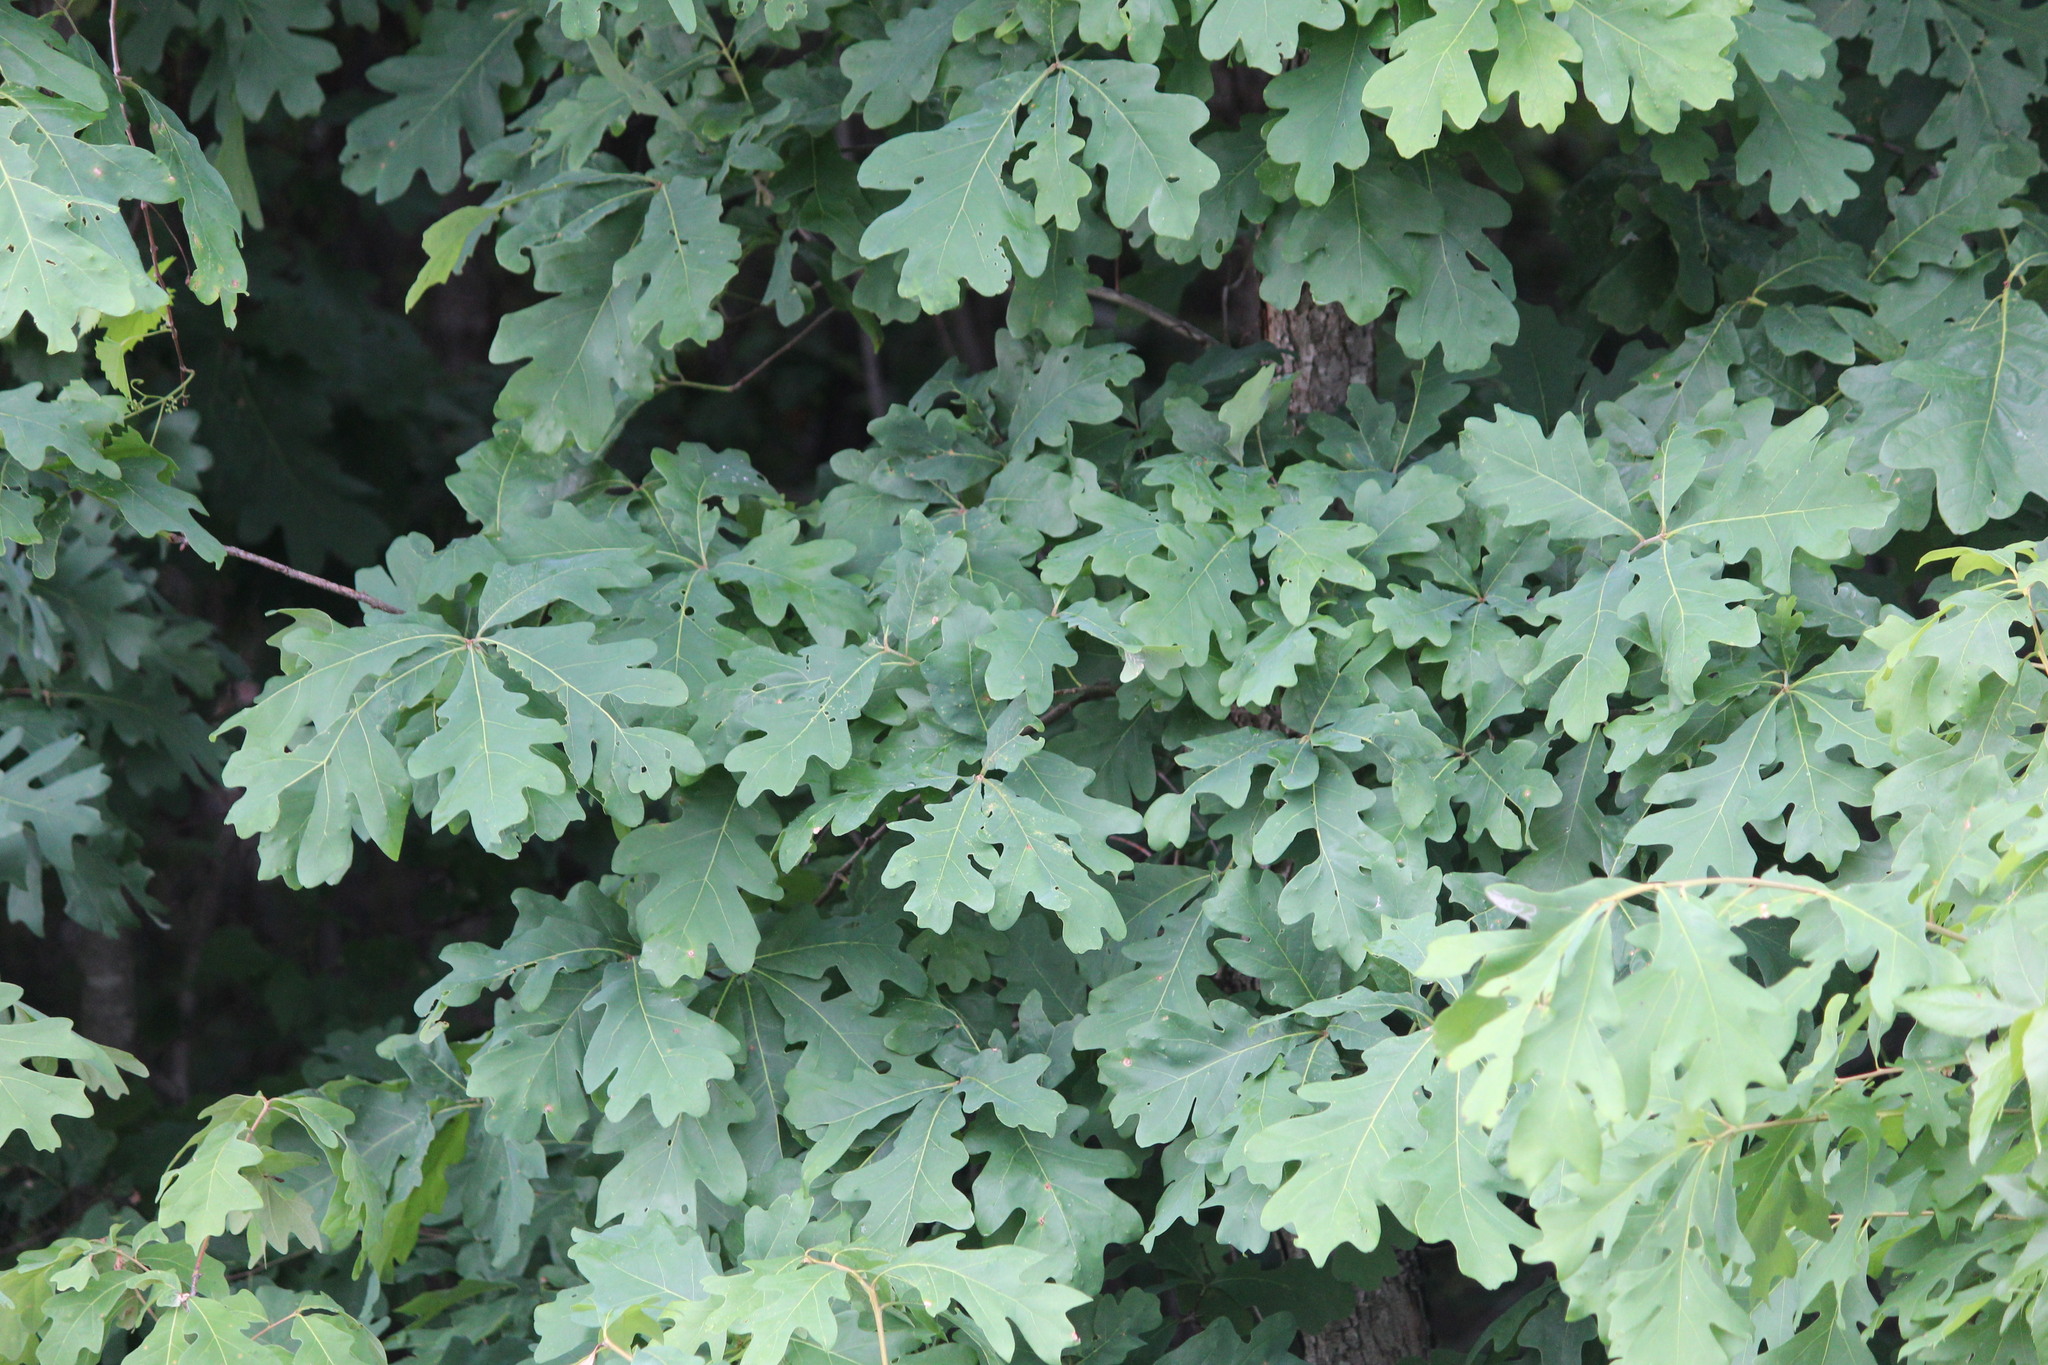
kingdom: Plantae
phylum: Tracheophyta
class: Magnoliopsida
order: Fagales
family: Fagaceae
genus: Quercus
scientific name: Quercus alba
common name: White oak
